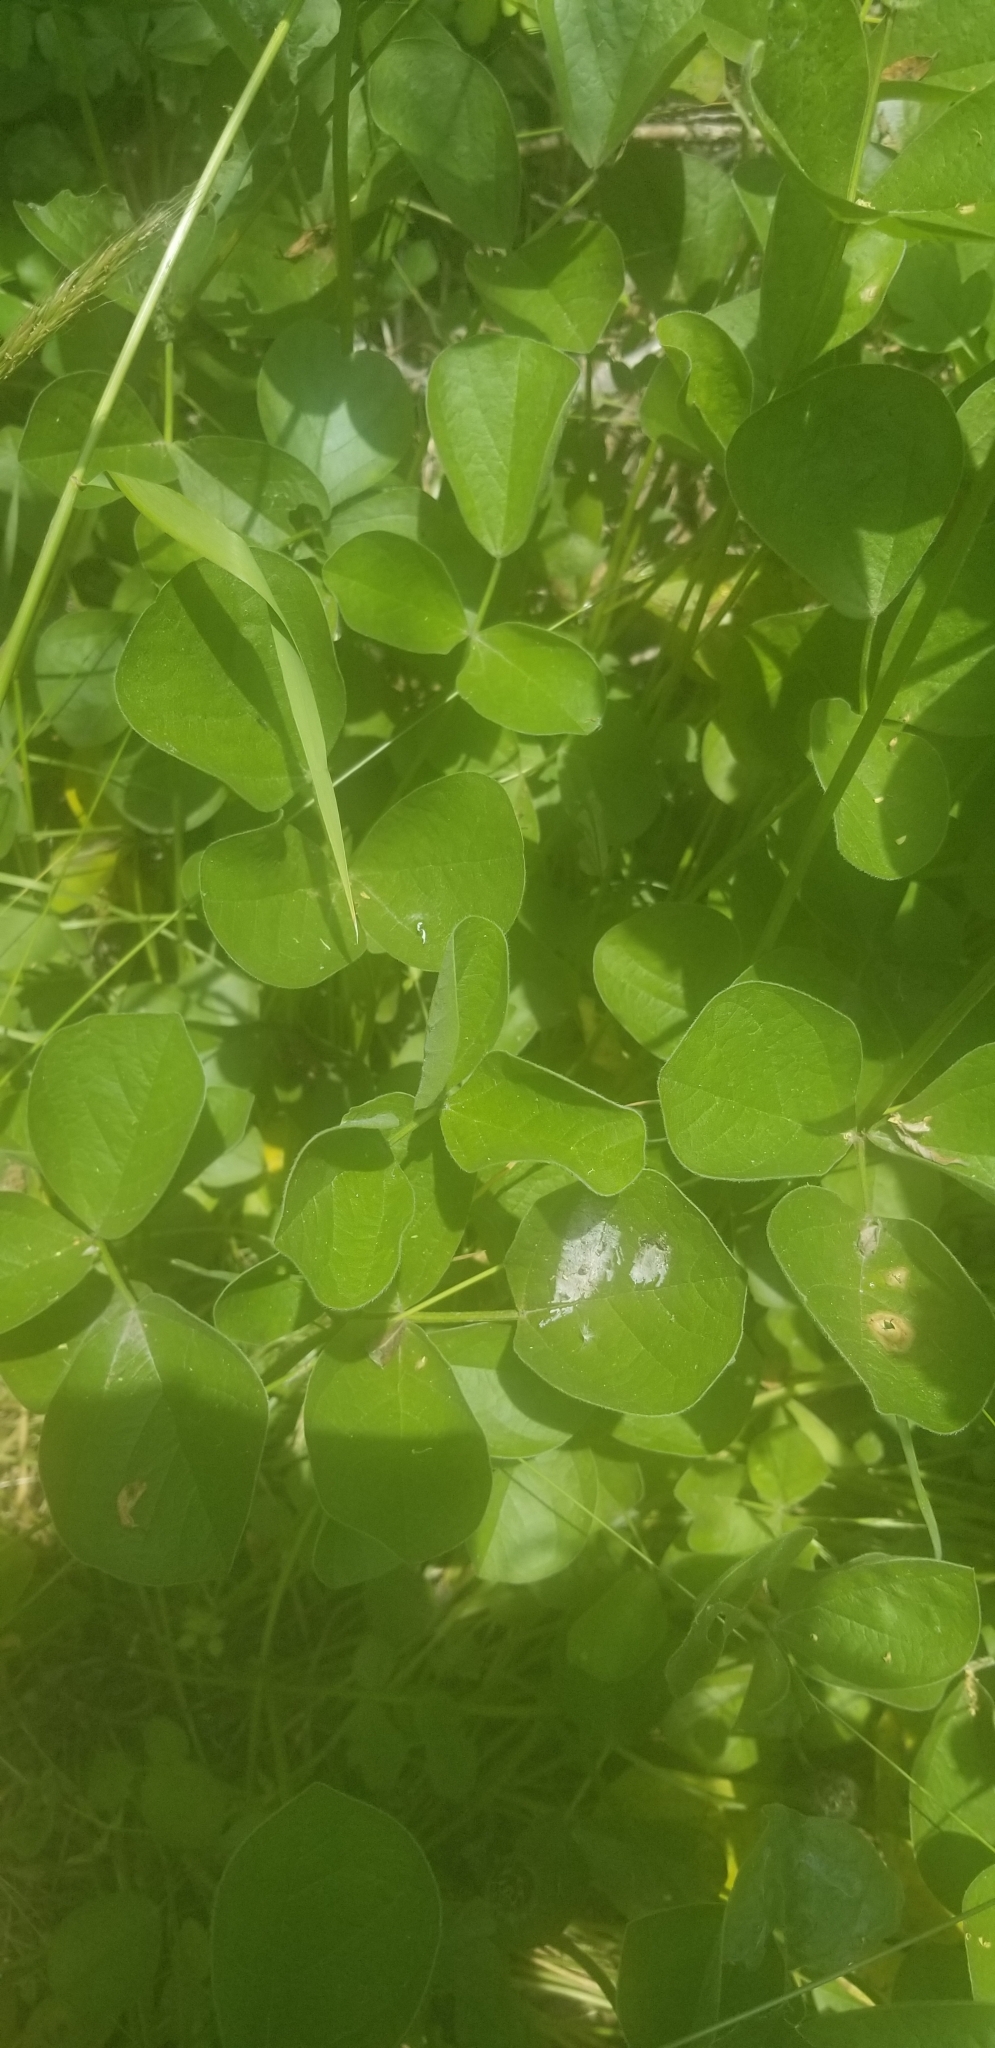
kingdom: Plantae
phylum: Tracheophyta
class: Magnoliopsida
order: Fabales
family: Fabaceae
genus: Hoita
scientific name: Hoita orbicularis
